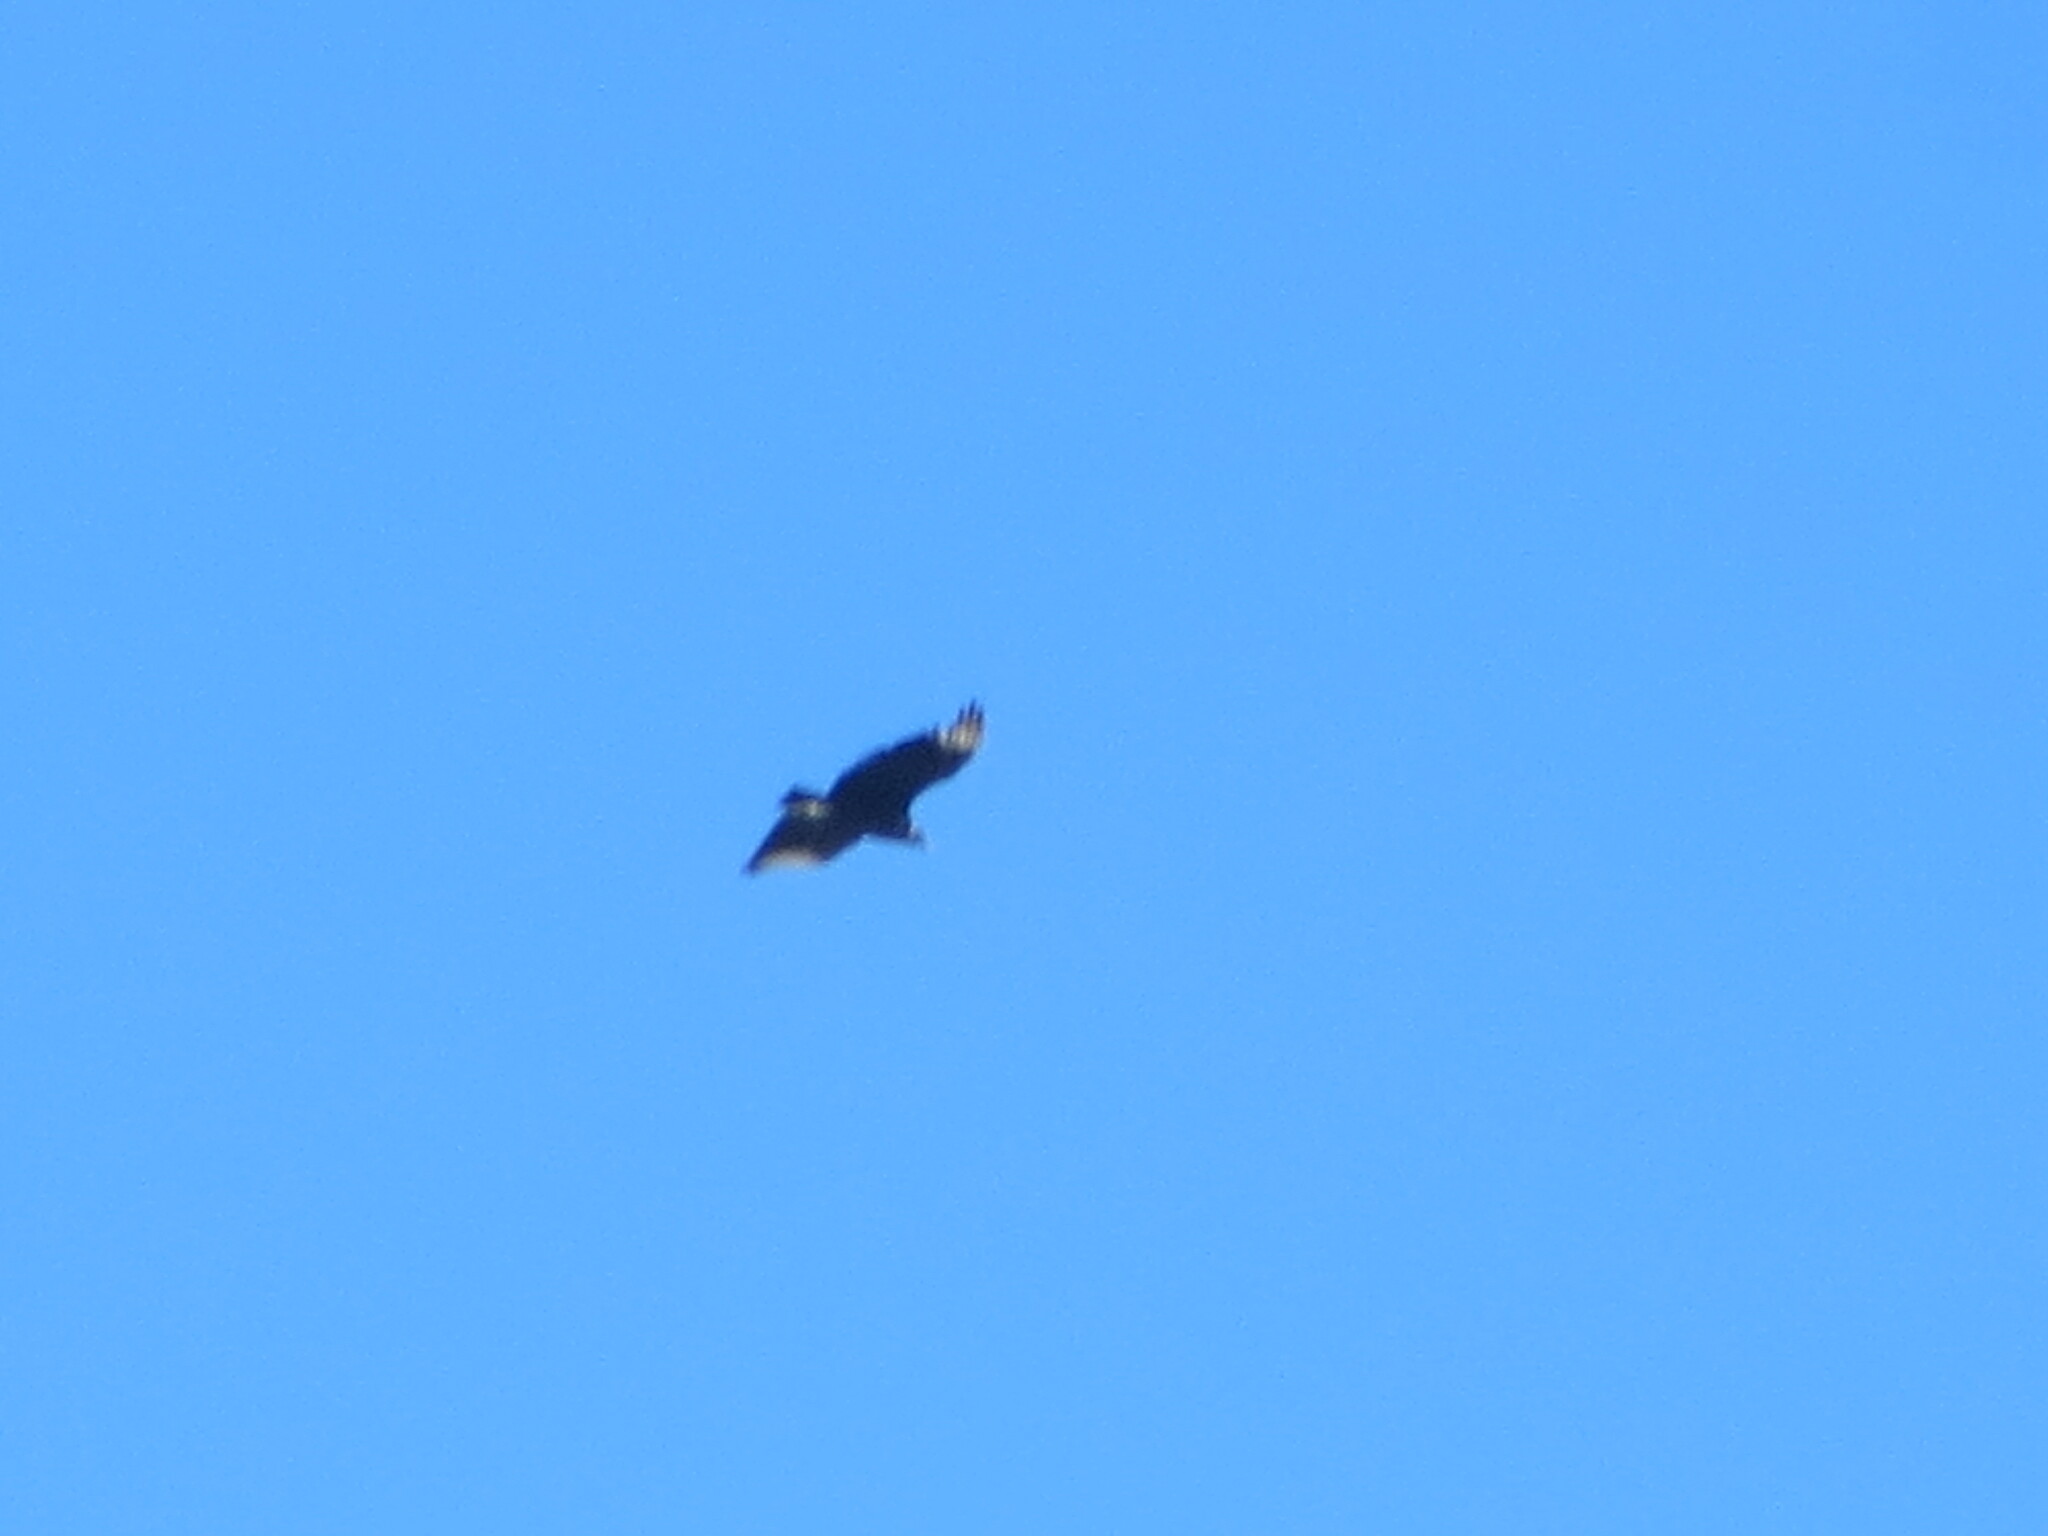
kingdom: Animalia
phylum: Chordata
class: Aves
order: Accipitriformes
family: Cathartidae
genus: Coragyps
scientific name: Coragyps atratus
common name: Black vulture
